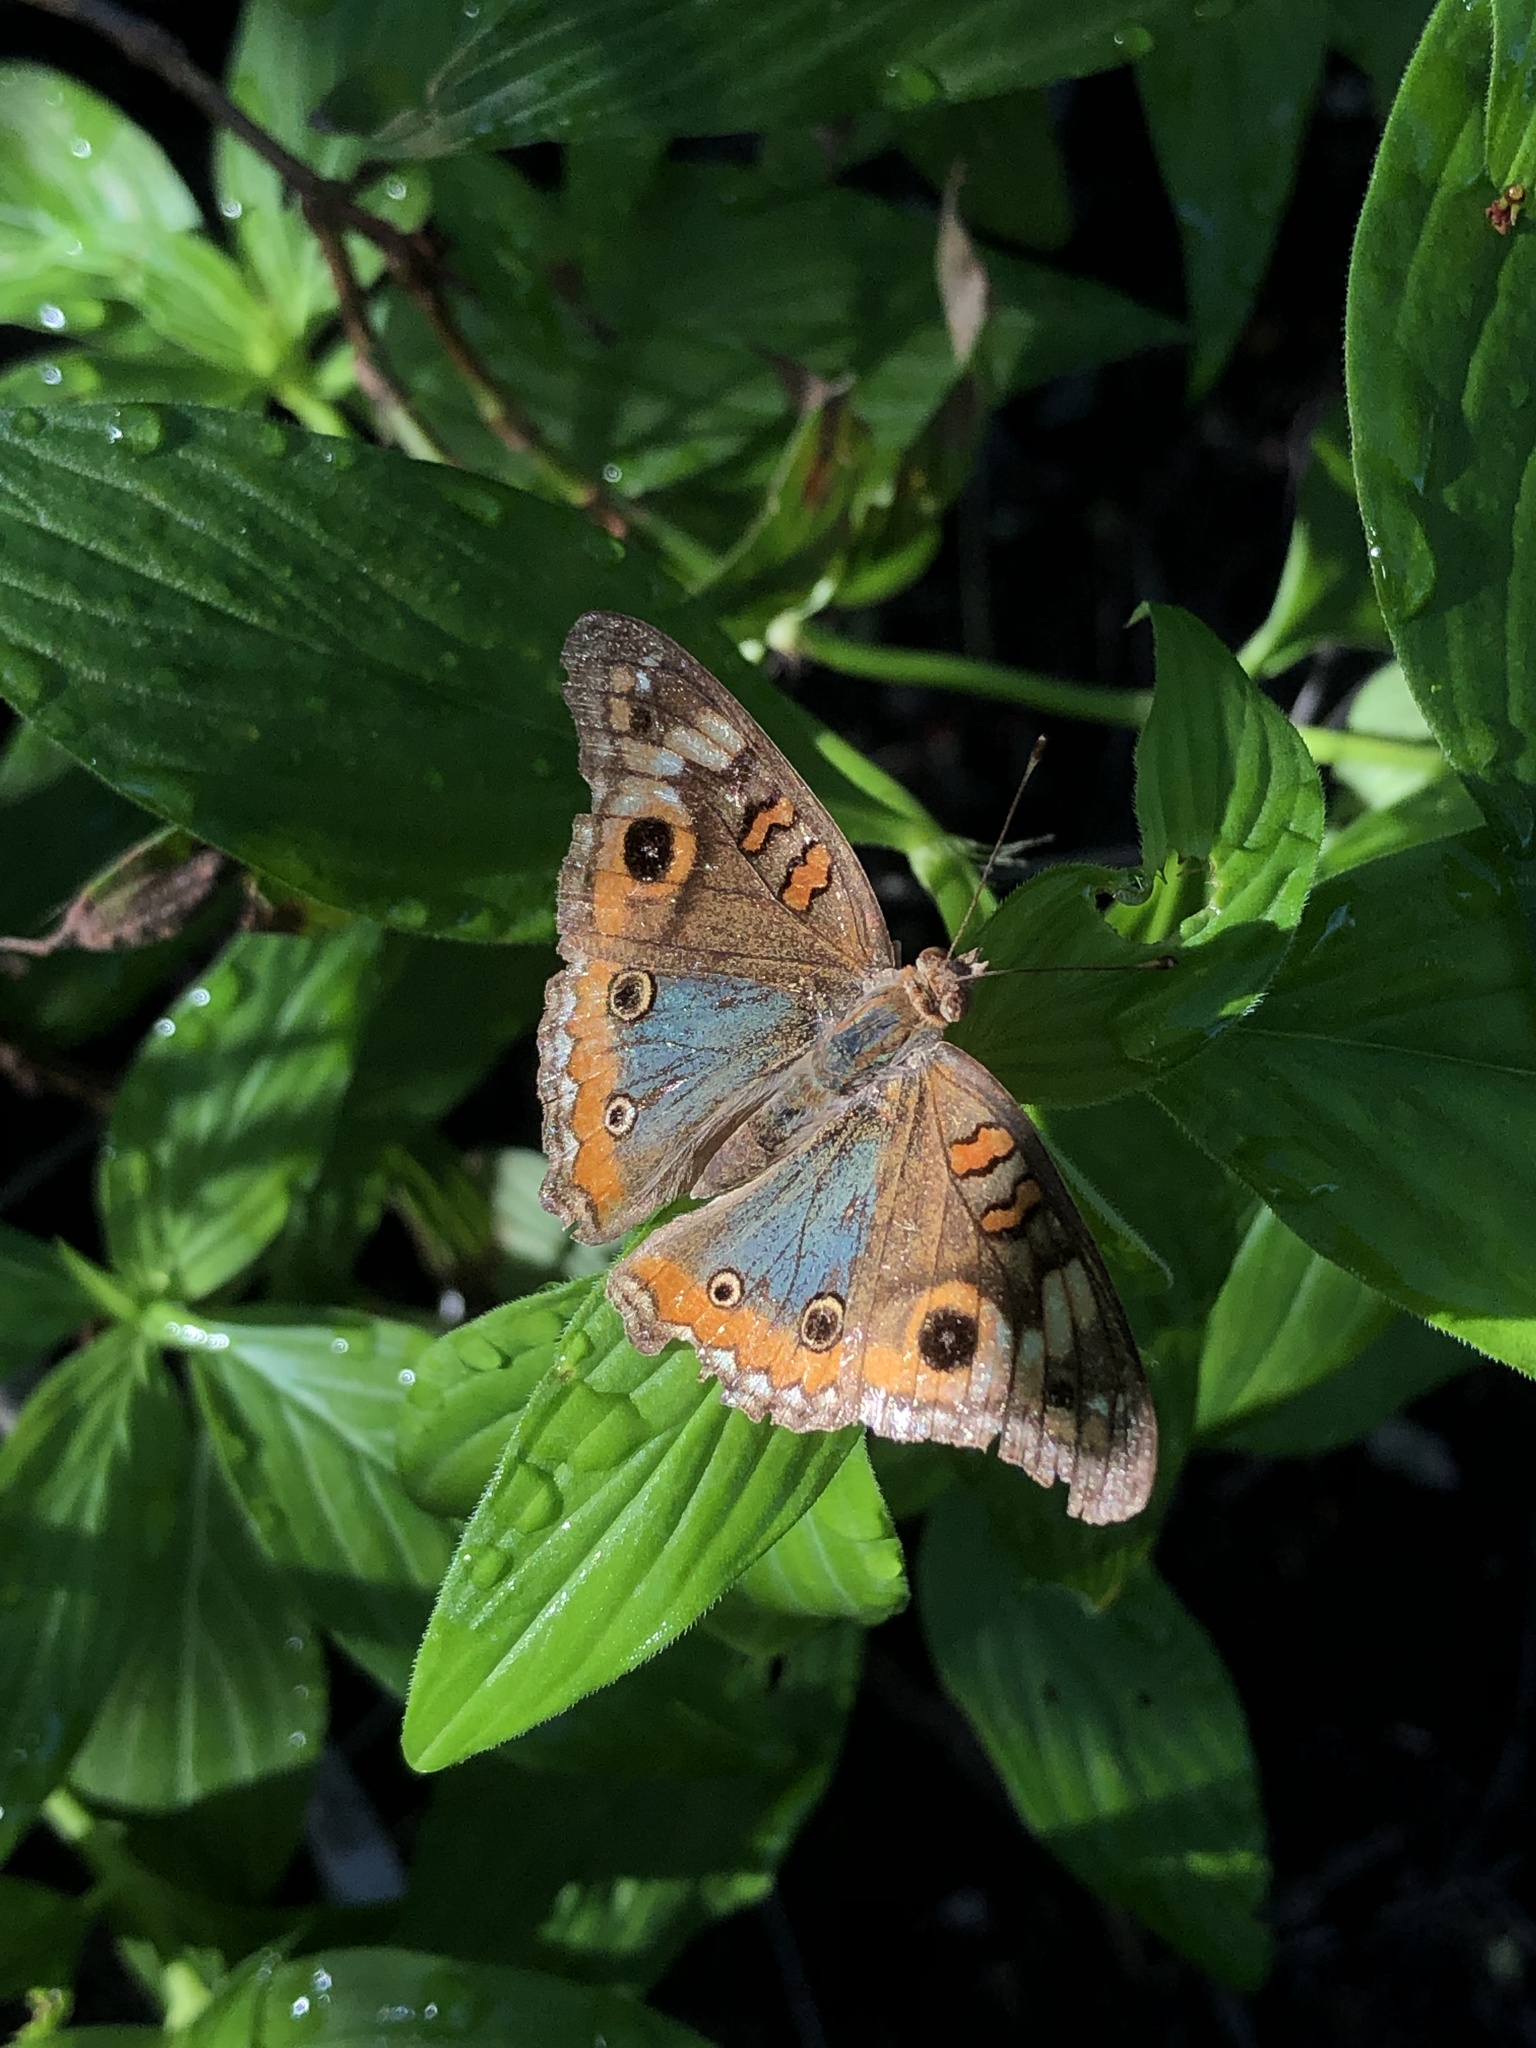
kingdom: Animalia
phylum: Arthropoda
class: Insecta
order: Lepidoptera
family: Nymphalidae
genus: Junonia
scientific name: Junonia lavinia
